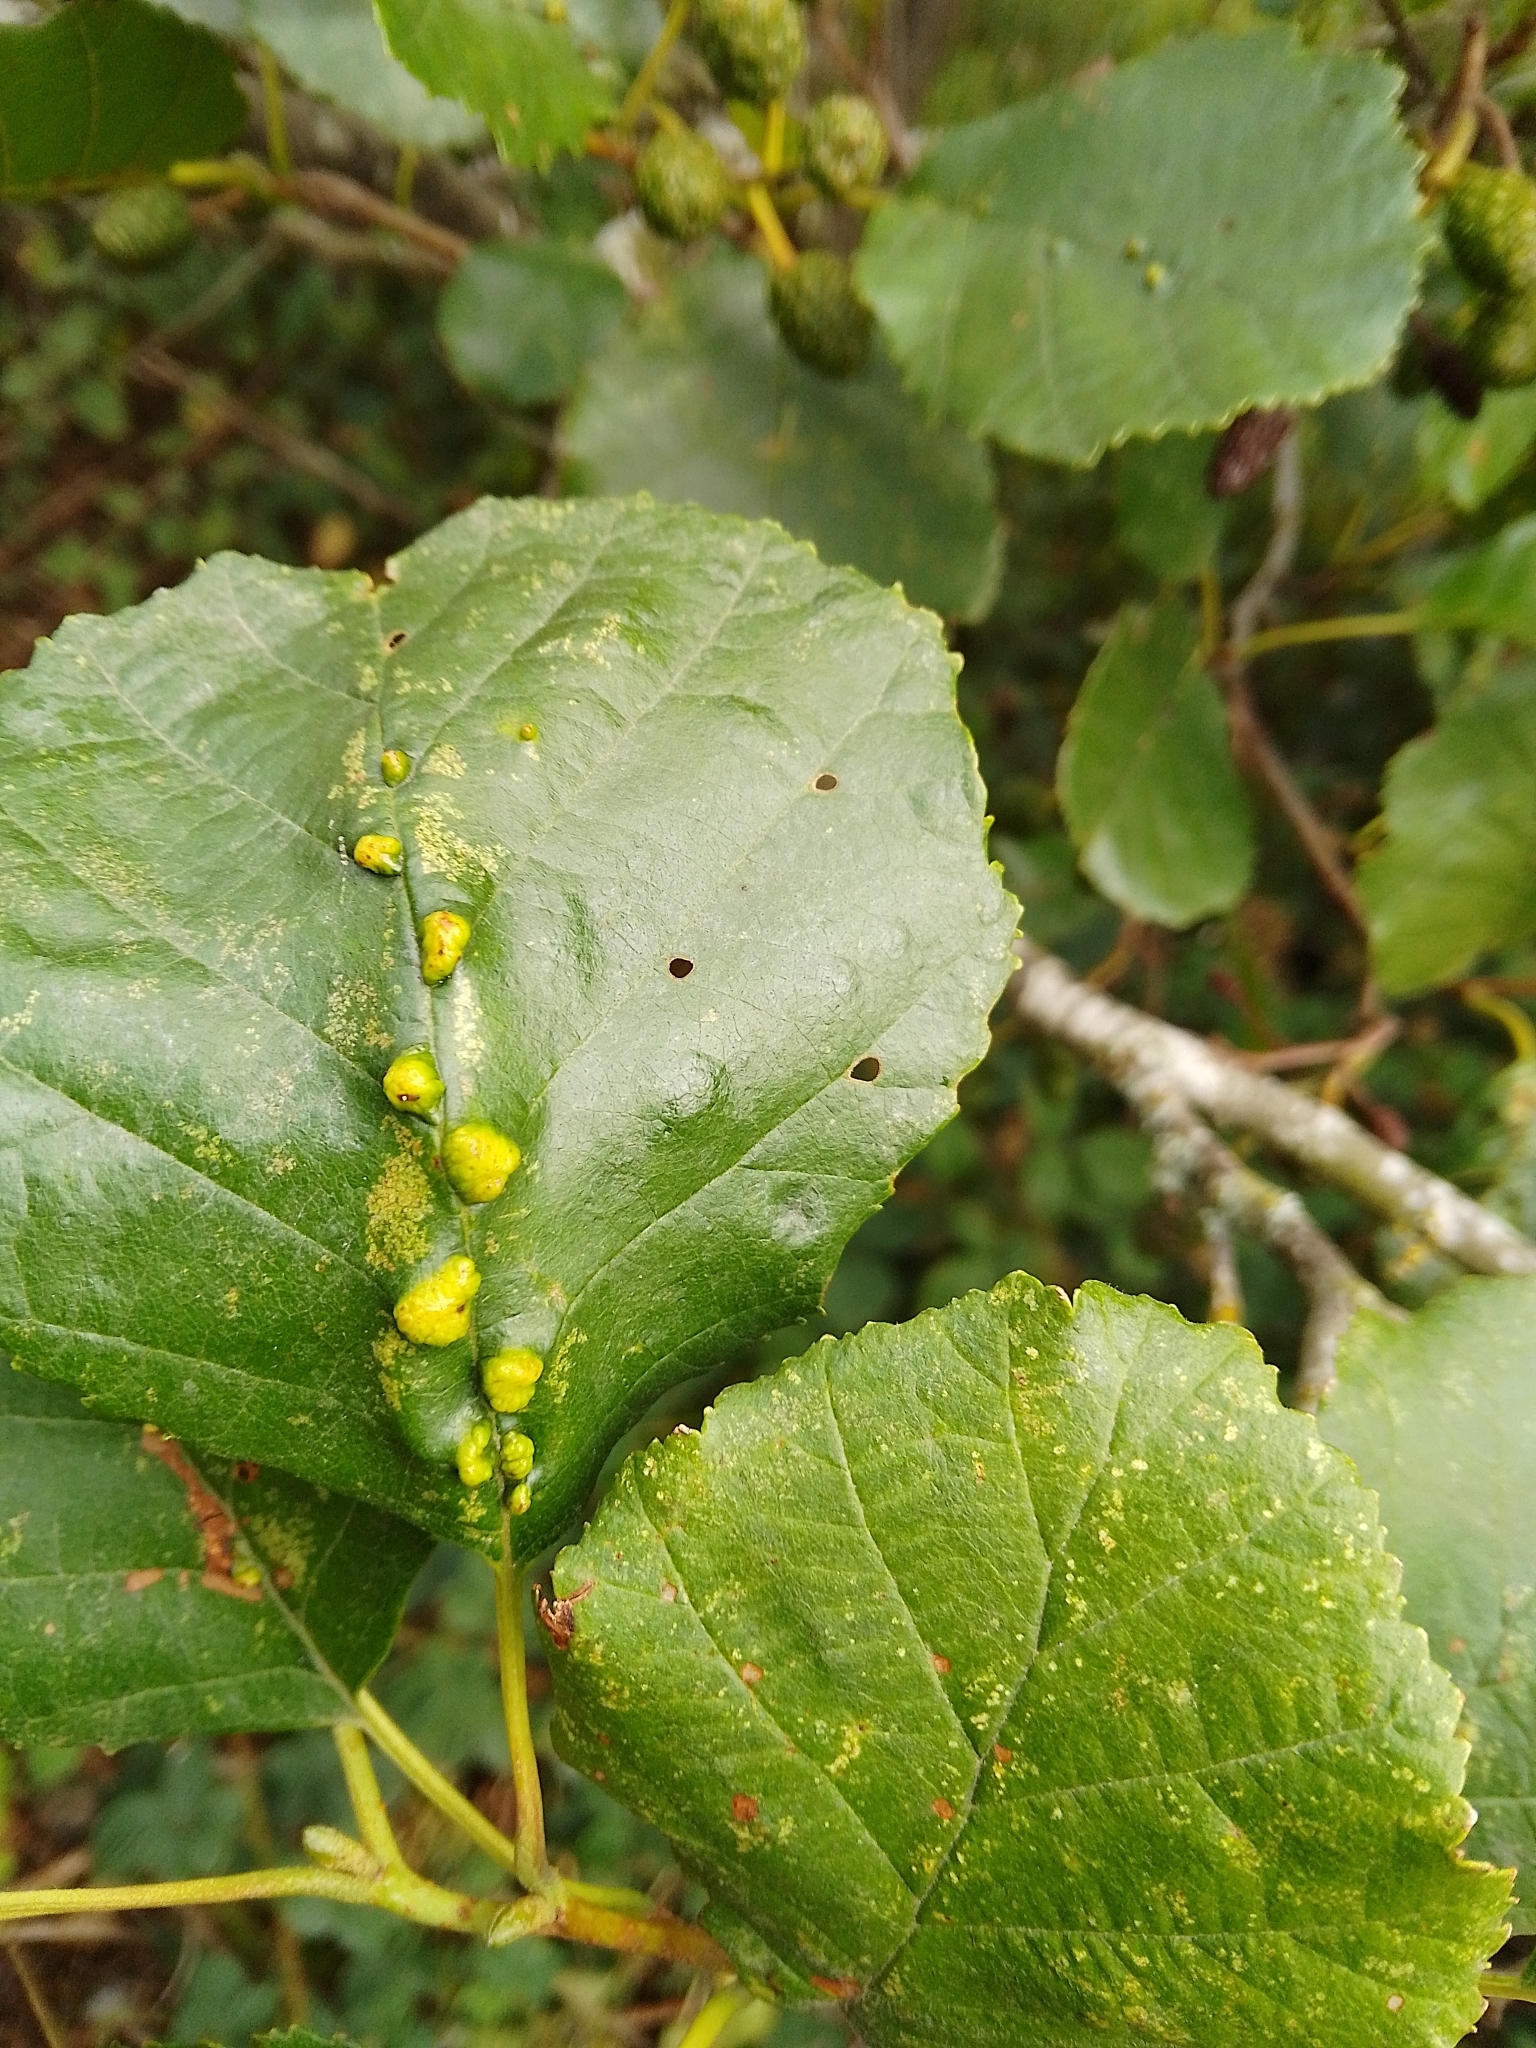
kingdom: Animalia
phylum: Arthropoda
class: Arachnida
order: Trombidiformes
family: Eriophyidae
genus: Eriophyes
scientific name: Eriophyes inangulis
